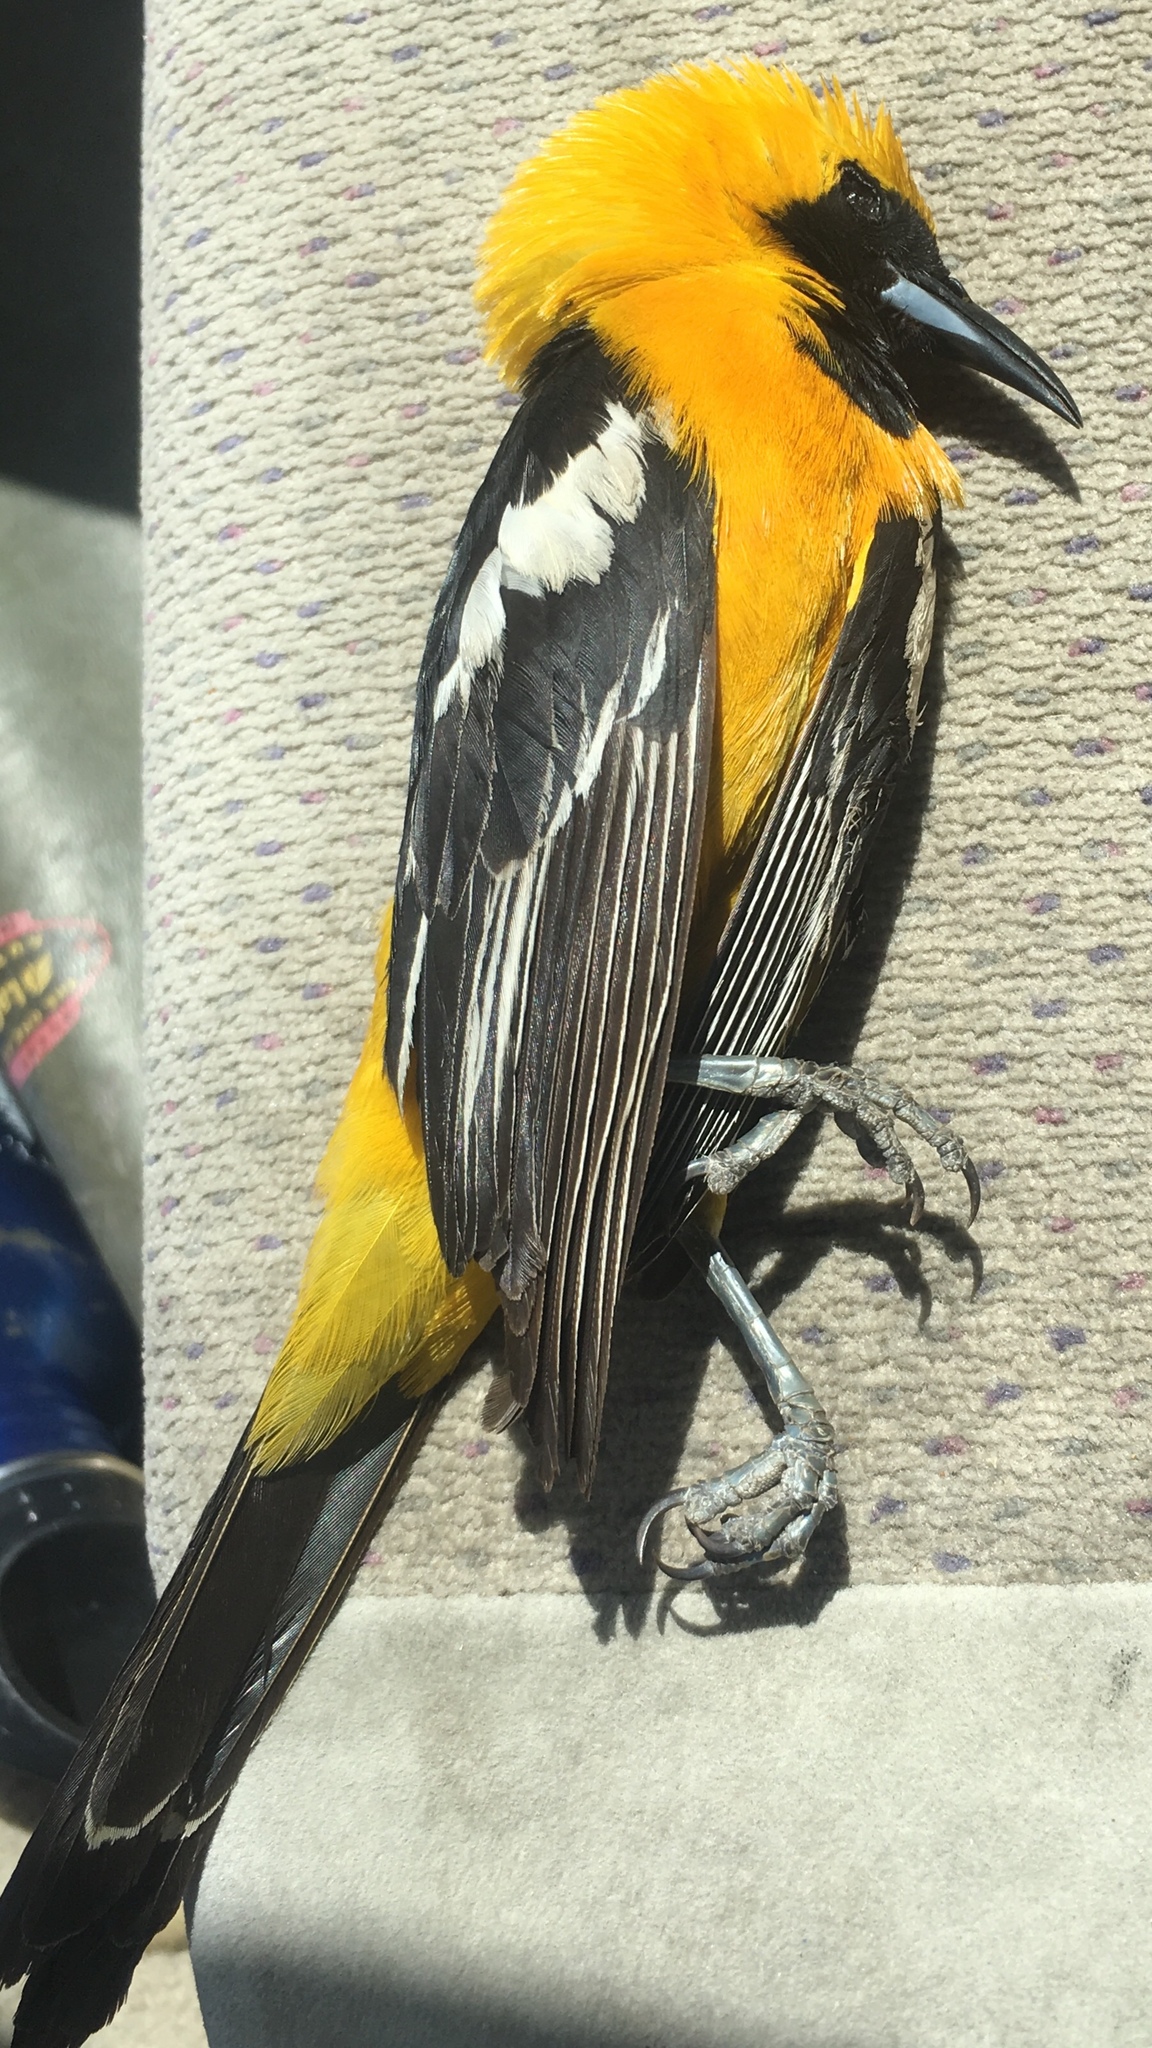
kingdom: Animalia
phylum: Chordata
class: Aves
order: Passeriformes
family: Icteridae
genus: Icterus
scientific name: Icterus cucullatus
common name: Hooded oriole
